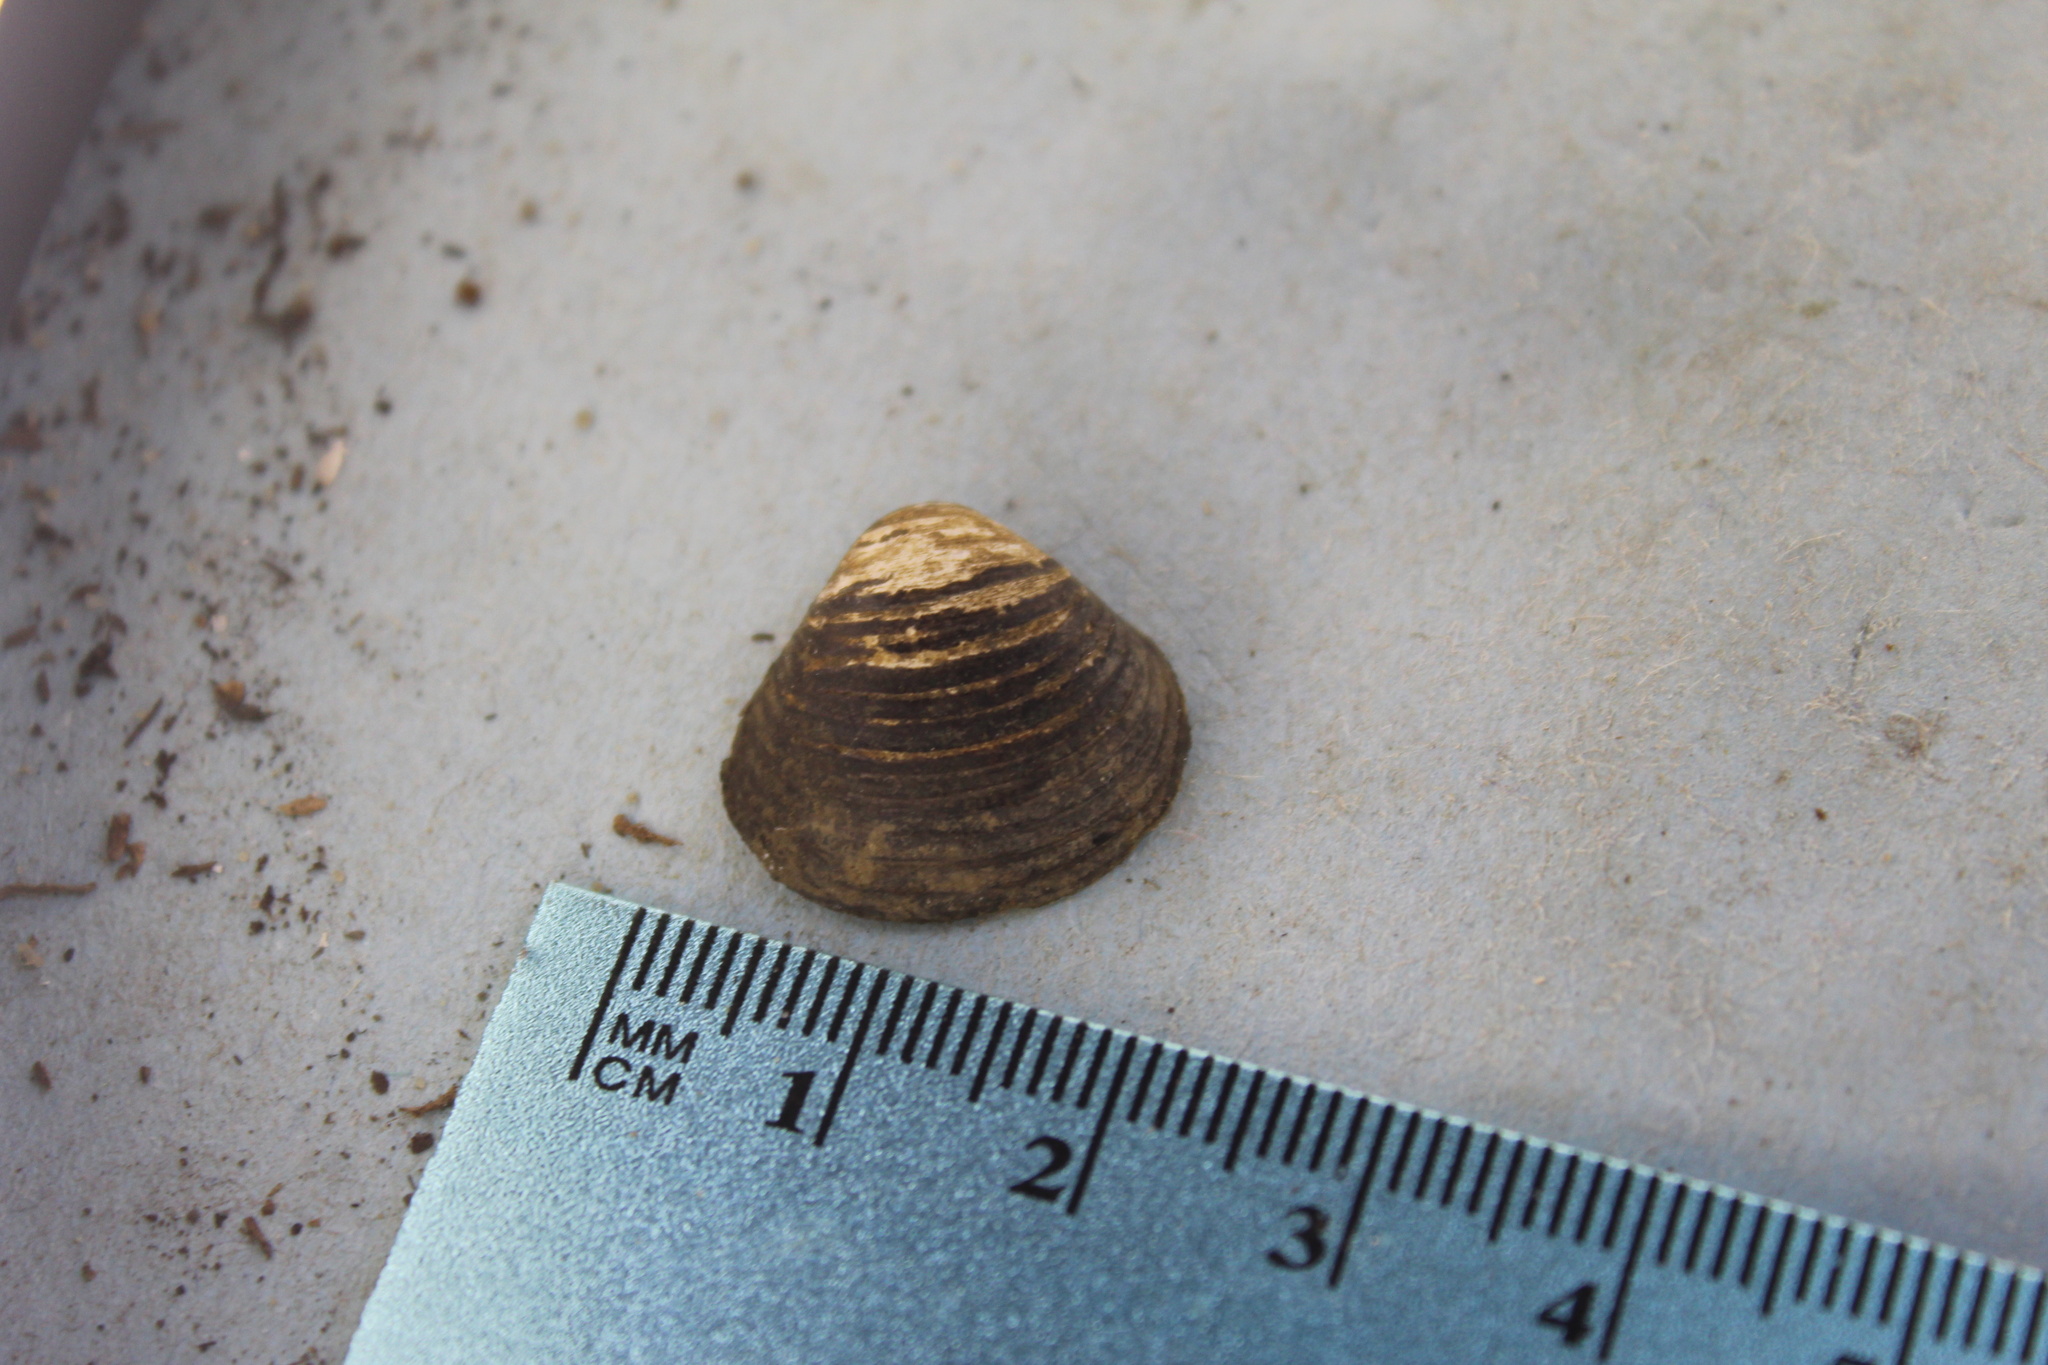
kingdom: Animalia
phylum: Mollusca
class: Bivalvia
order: Venerida
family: Cyrenidae
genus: Corbicula
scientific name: Corbicula fluminea
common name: Asian clam
